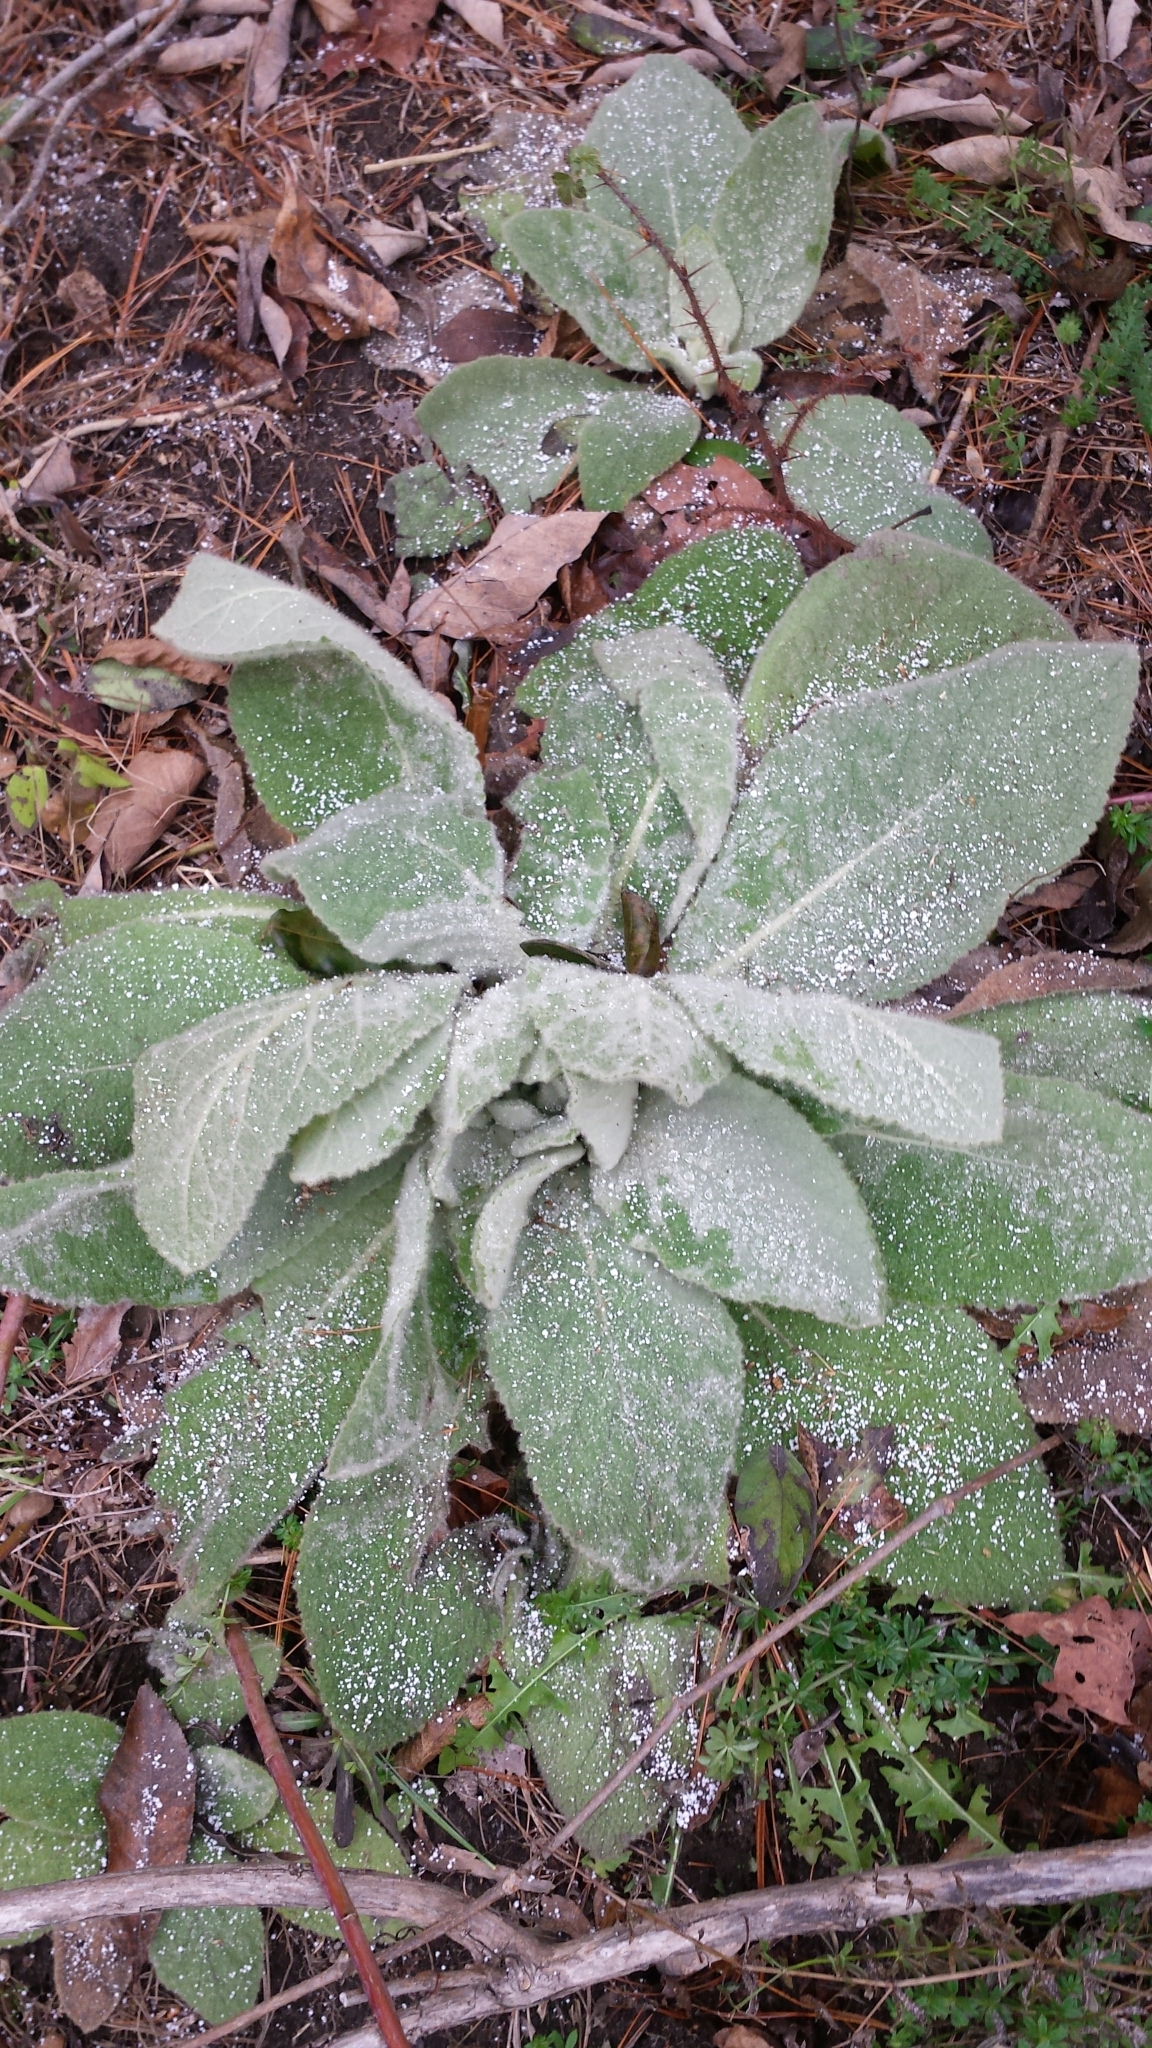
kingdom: Plantae
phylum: Tracheophyta
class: Magnoliopsida
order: Lamiales
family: Scrophulariaceae
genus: Verbascum
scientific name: Verbascum thapsus
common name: Common mullein
